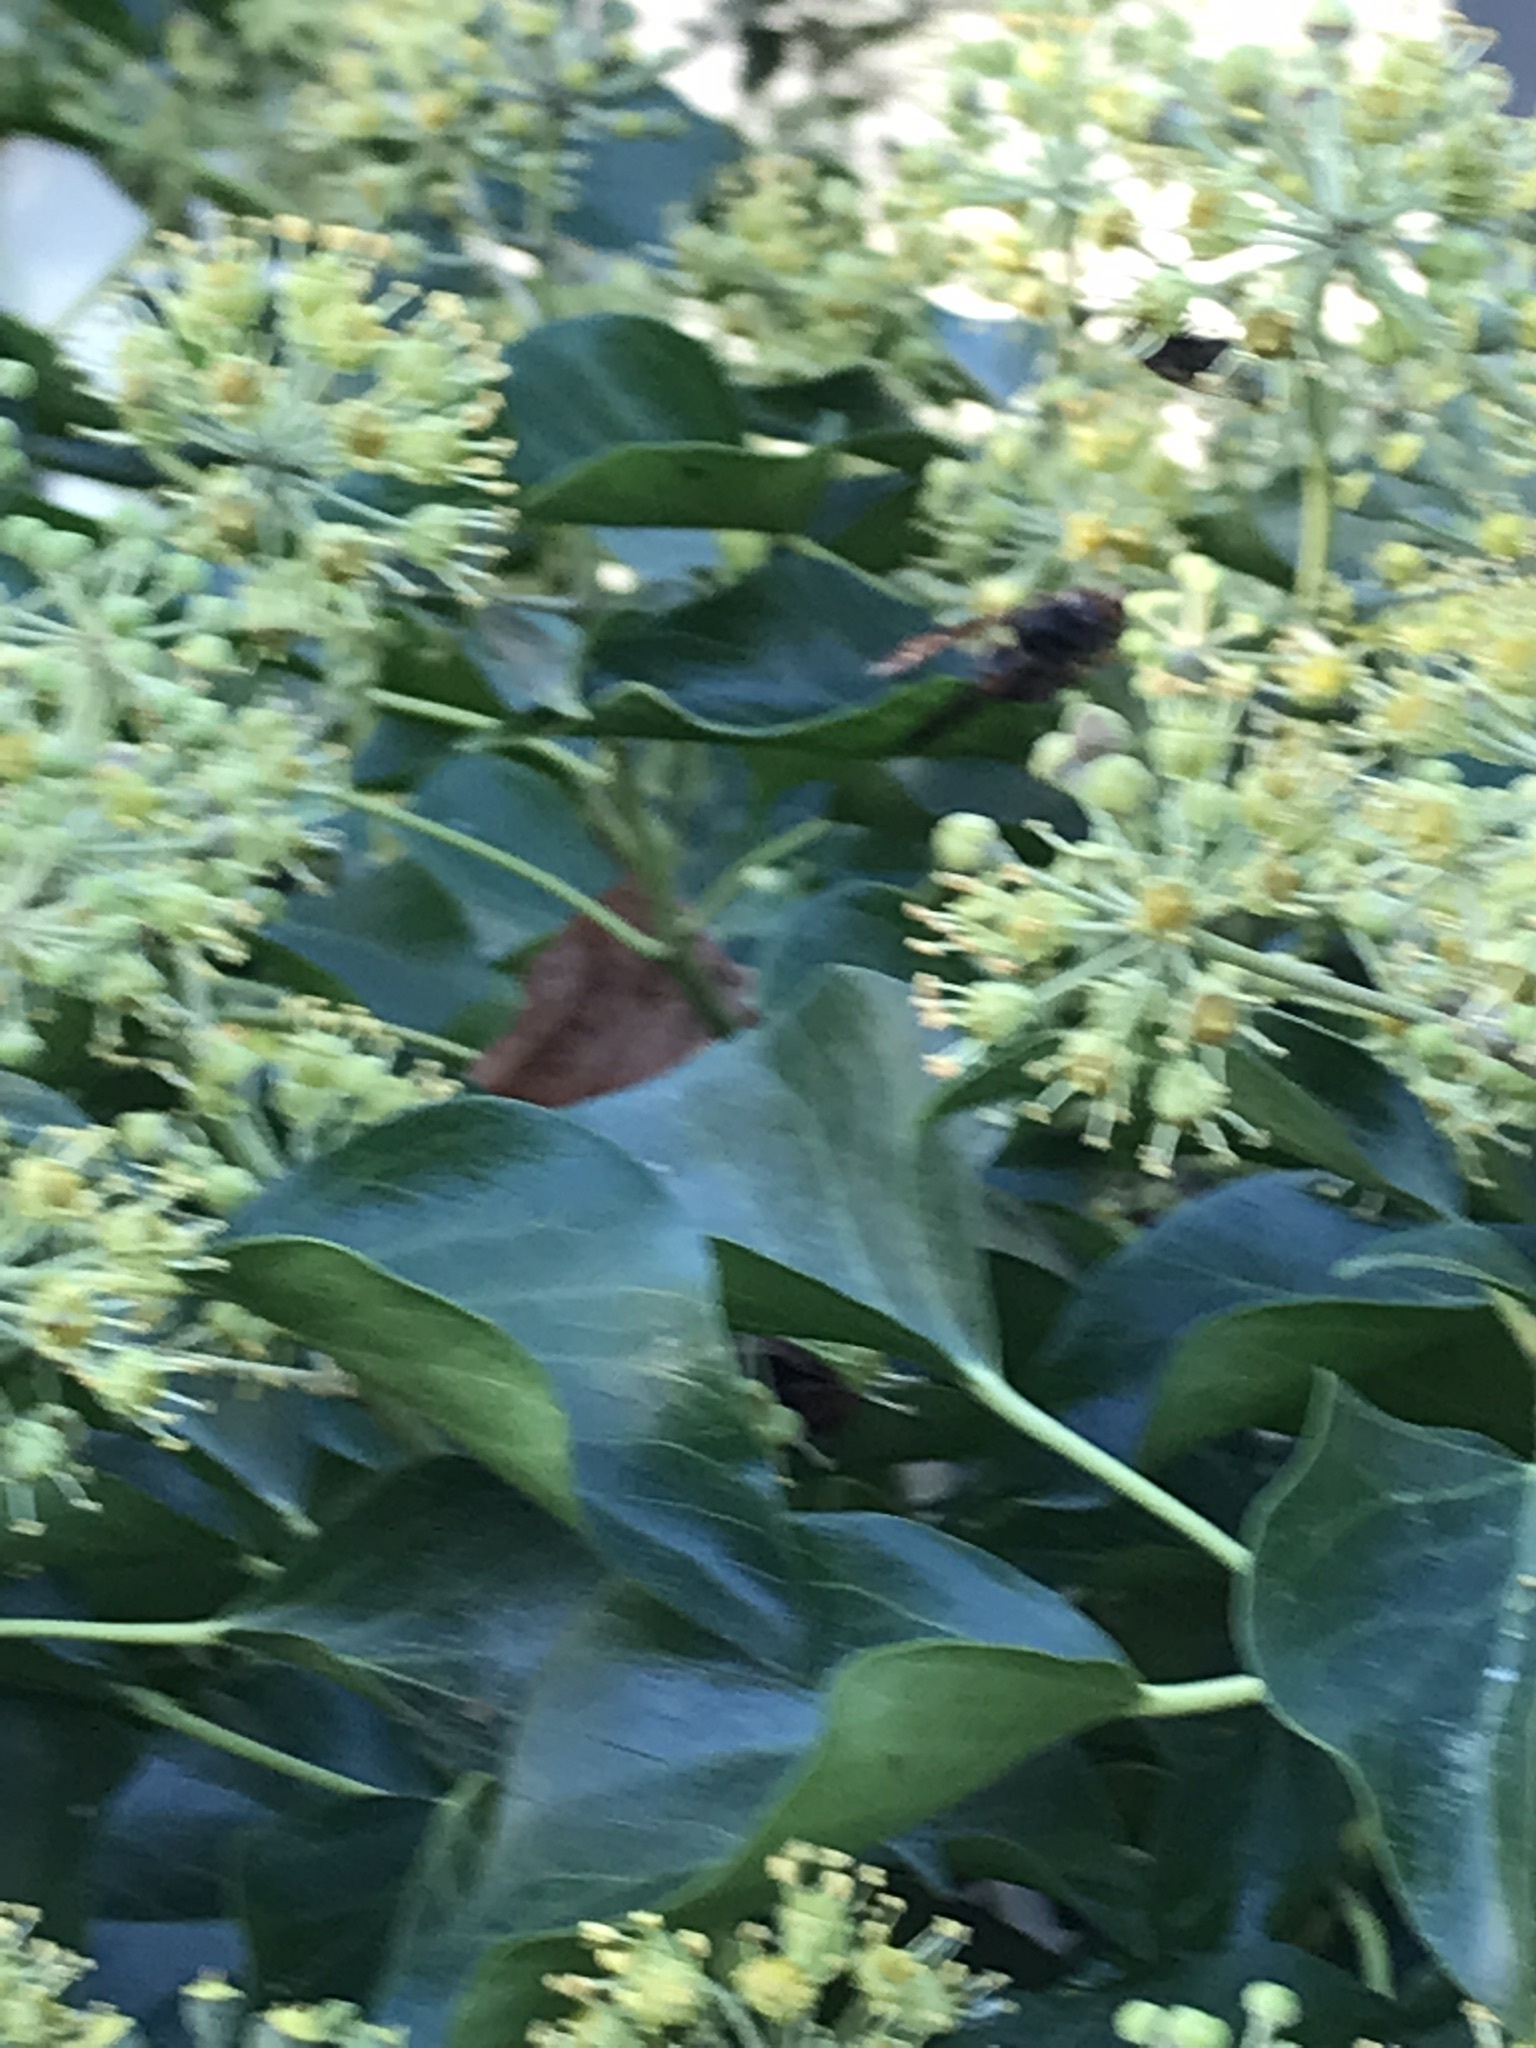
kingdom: Animalia
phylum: Arthropoda
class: Insecta
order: Hymenoptera
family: Vespidae
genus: Vespa
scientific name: Vespa velutina
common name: Asian hornet
